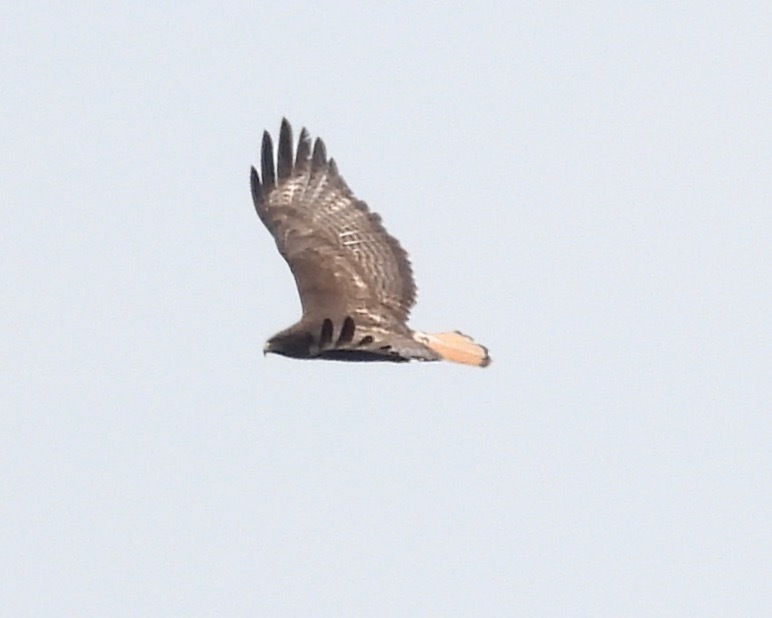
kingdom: Animalia
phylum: Chordata
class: Aves
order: Accipitriformes
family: Accipitridae
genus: Buteo
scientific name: Buteo jamaicensis
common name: Red-tailed hawk
